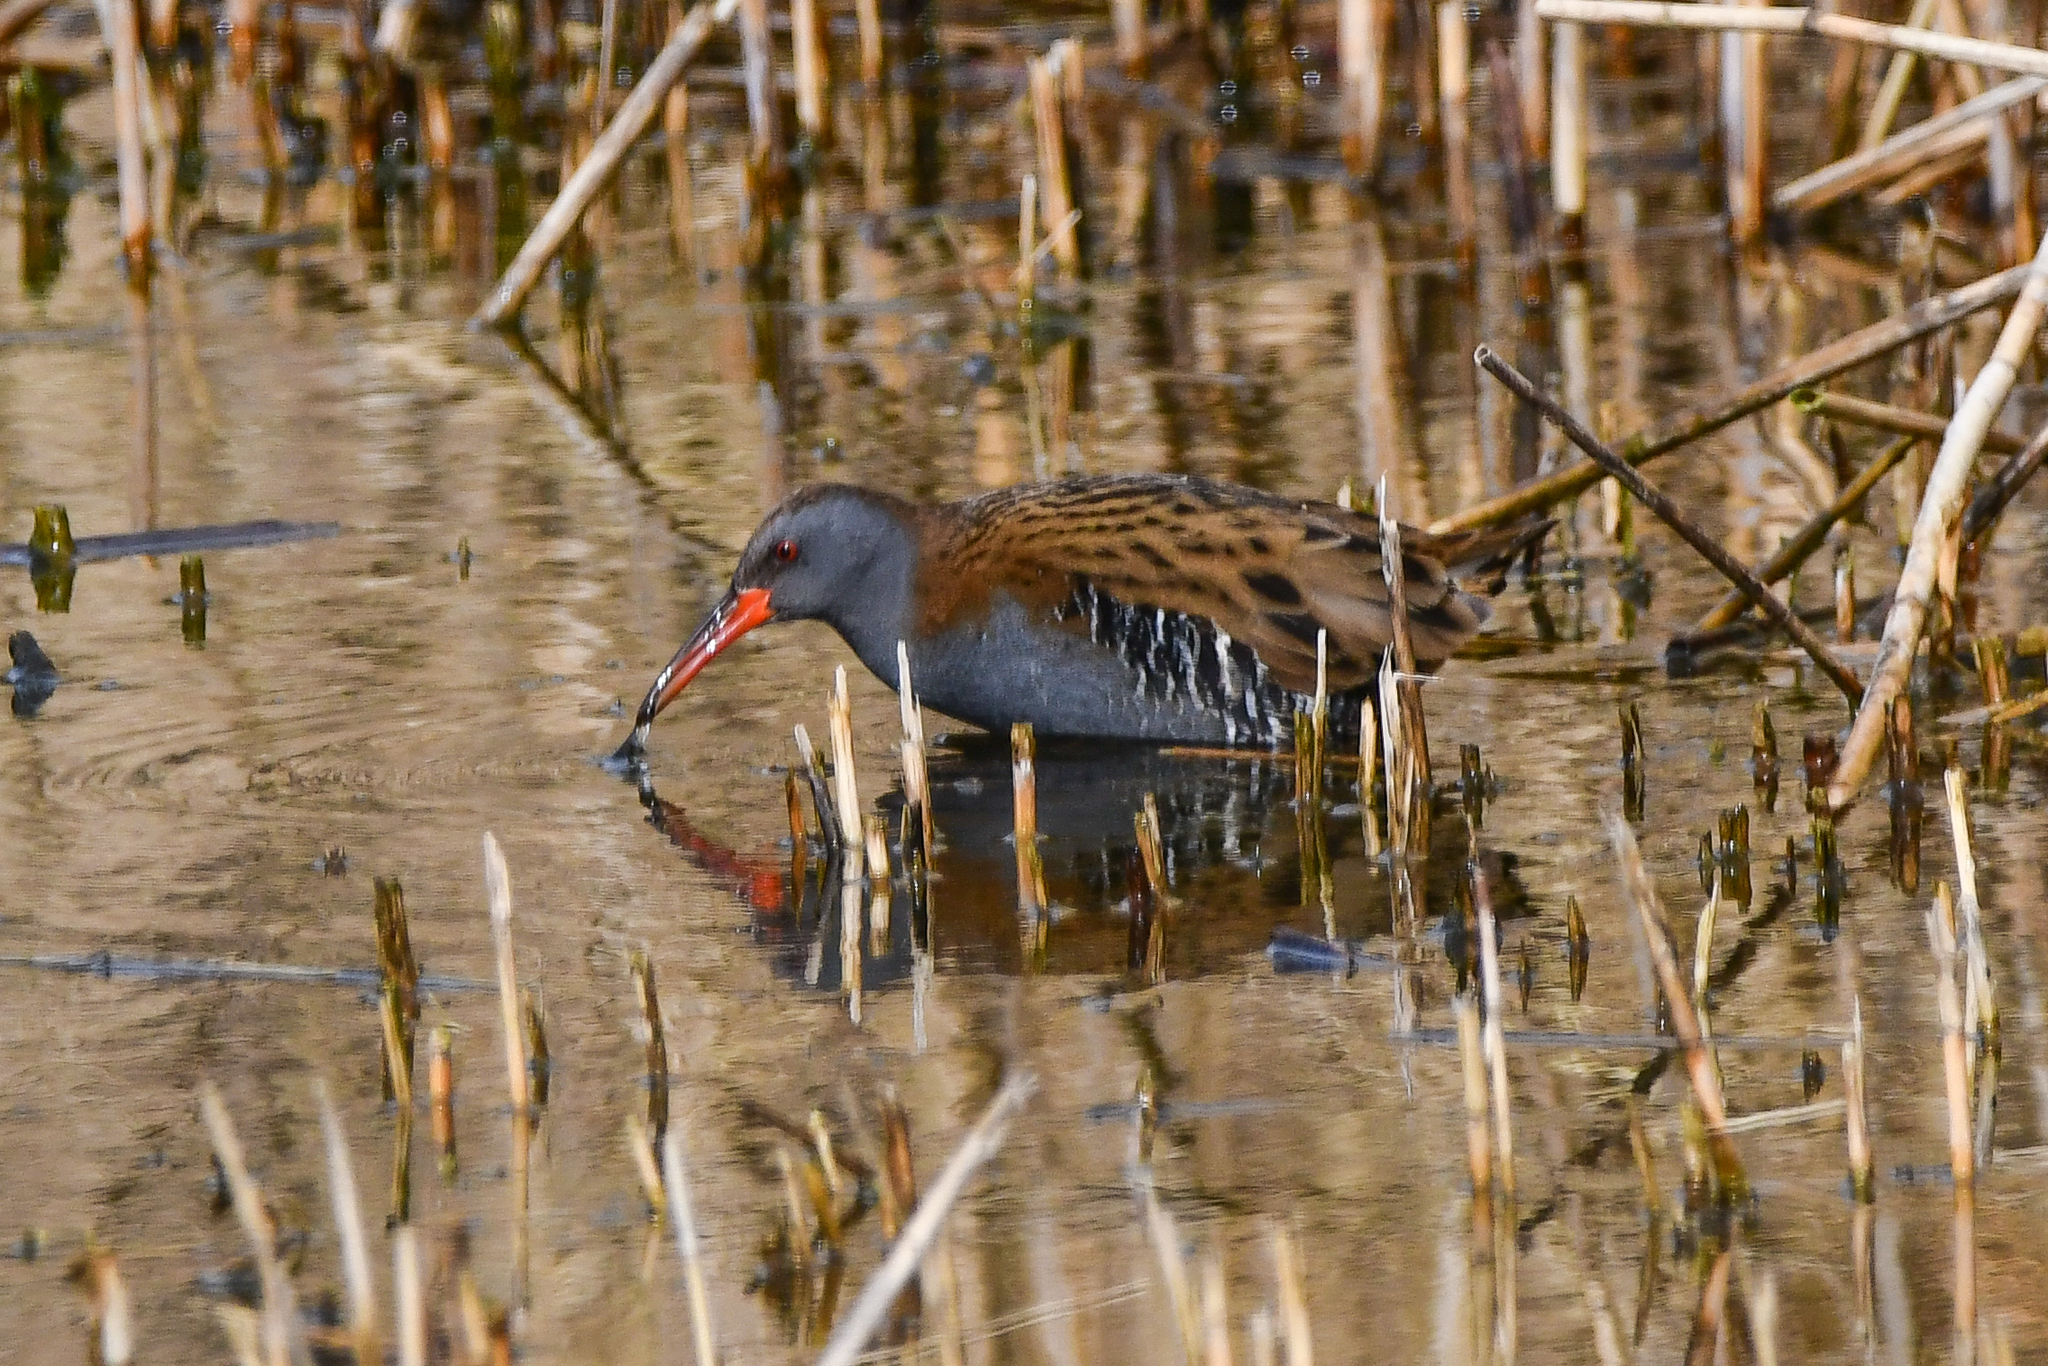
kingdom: Animalia
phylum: Chordata
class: Aves
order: Gruiformes
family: Rallidae
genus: Rallus
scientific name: Rallus aquaticus
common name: Water rail
